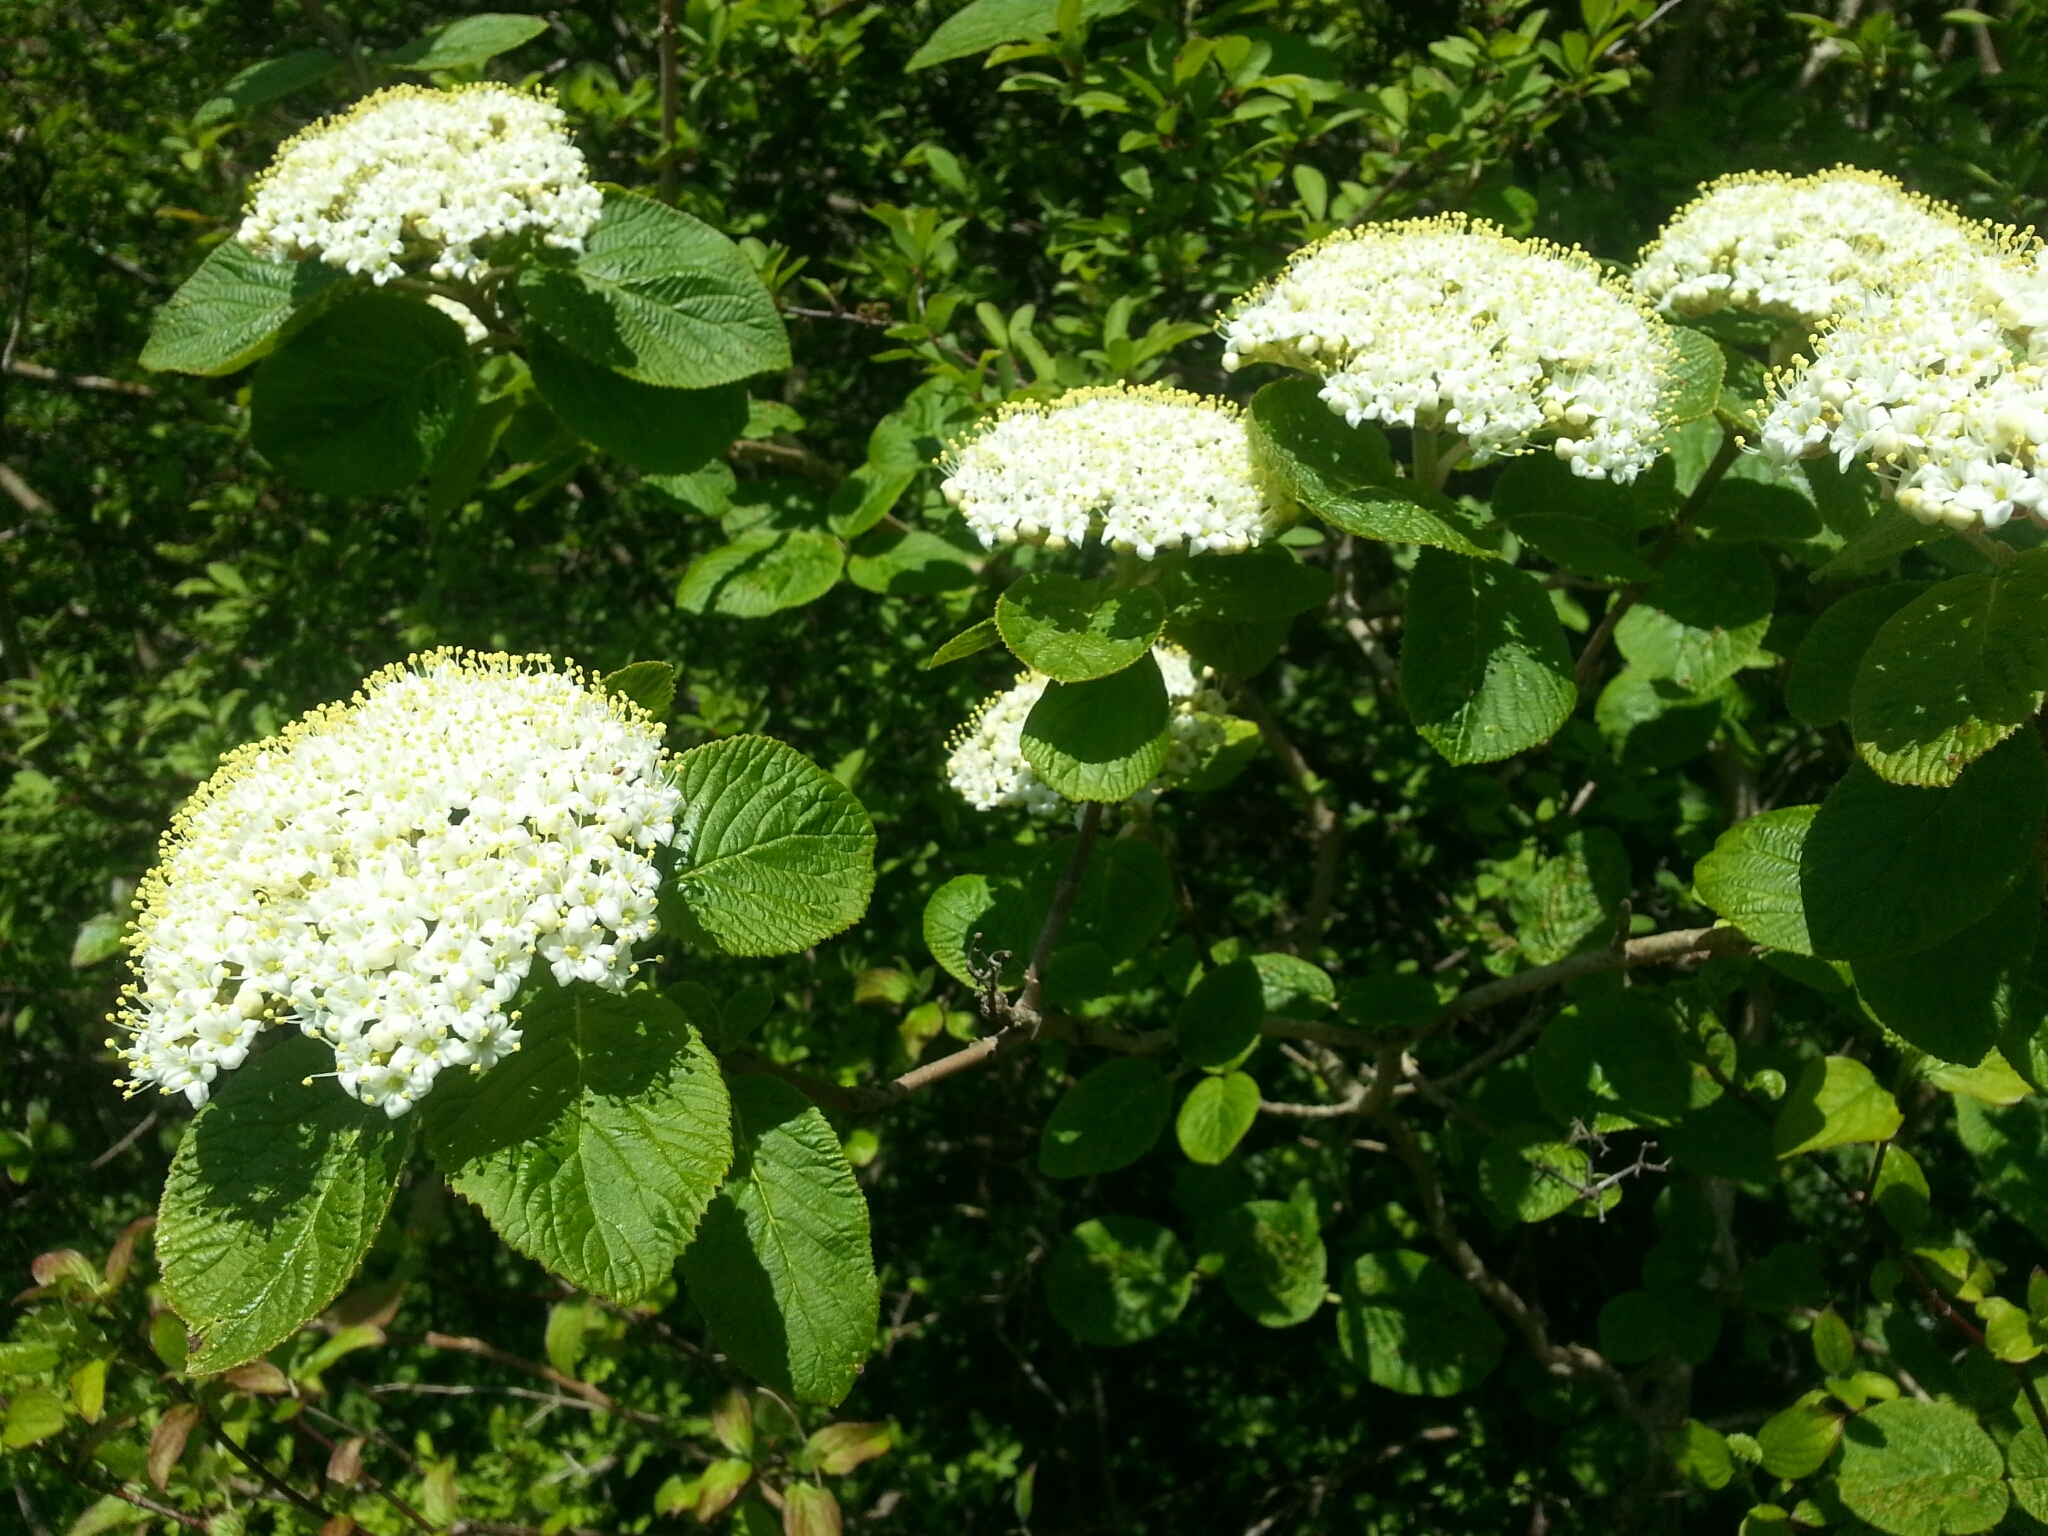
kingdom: Plantae
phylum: Tracheophyta
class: Magnoliopsida
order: Dipsacales
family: Viburnaceae
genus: Viburnum
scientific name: Viburnum lantana
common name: Wayfaring tree
